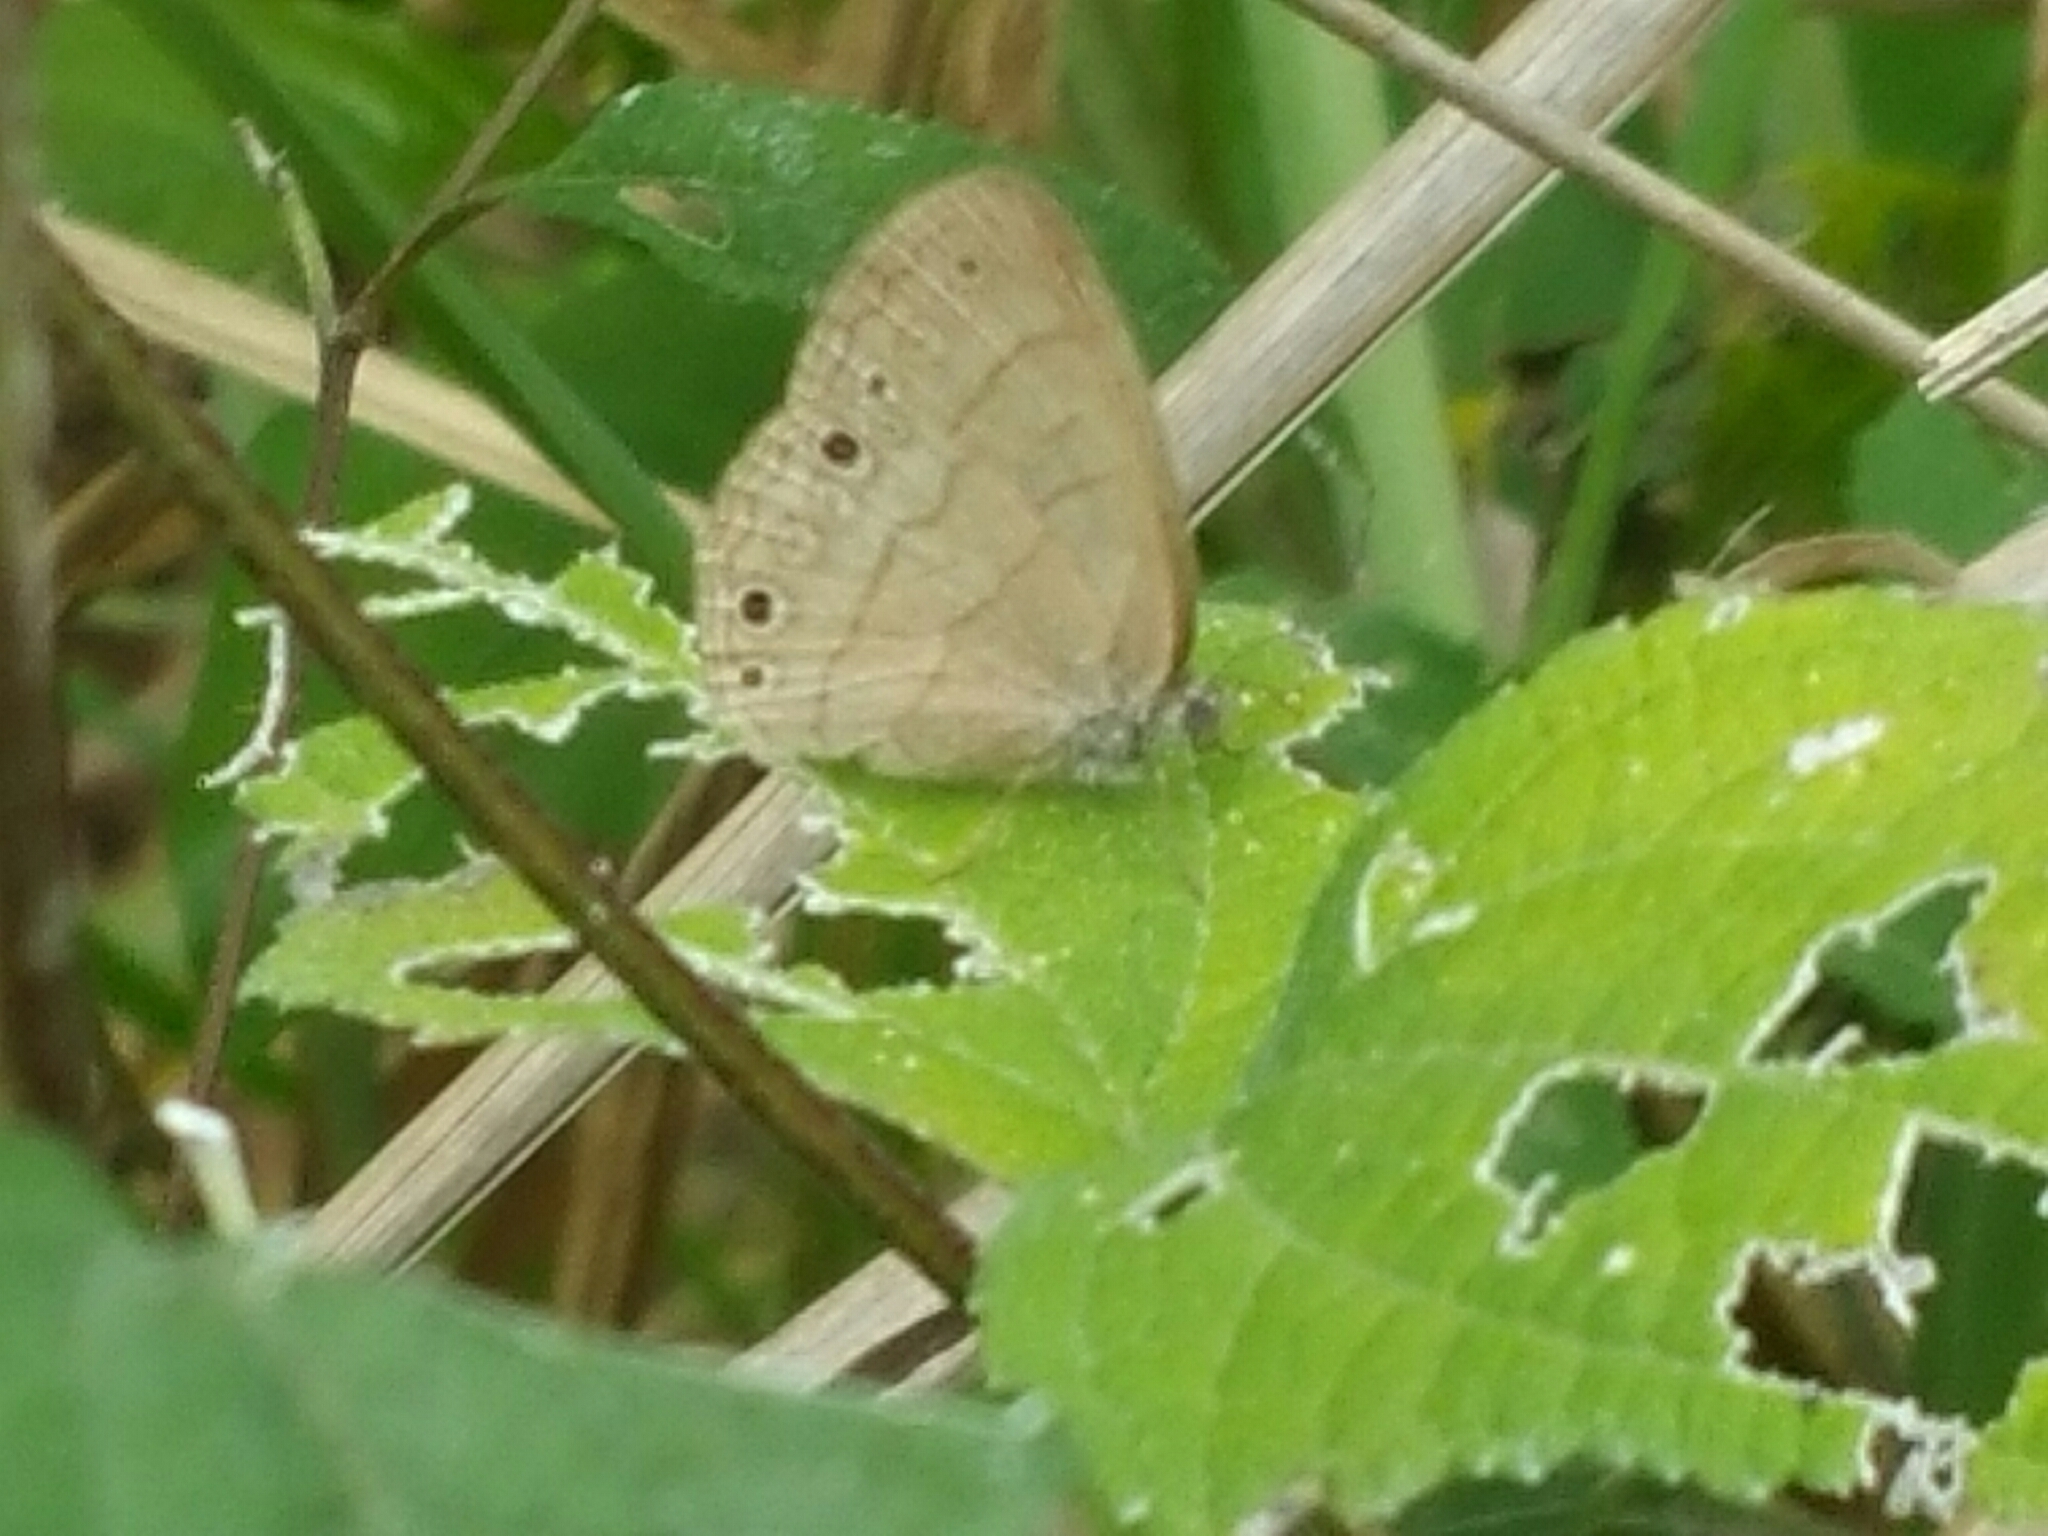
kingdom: Animalia
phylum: Arthropoda
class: Insecta
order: Lepidoptera
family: Nymphalidae
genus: Hermeuptychia
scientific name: Hermeuptychia hermes
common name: Hermes satyr
